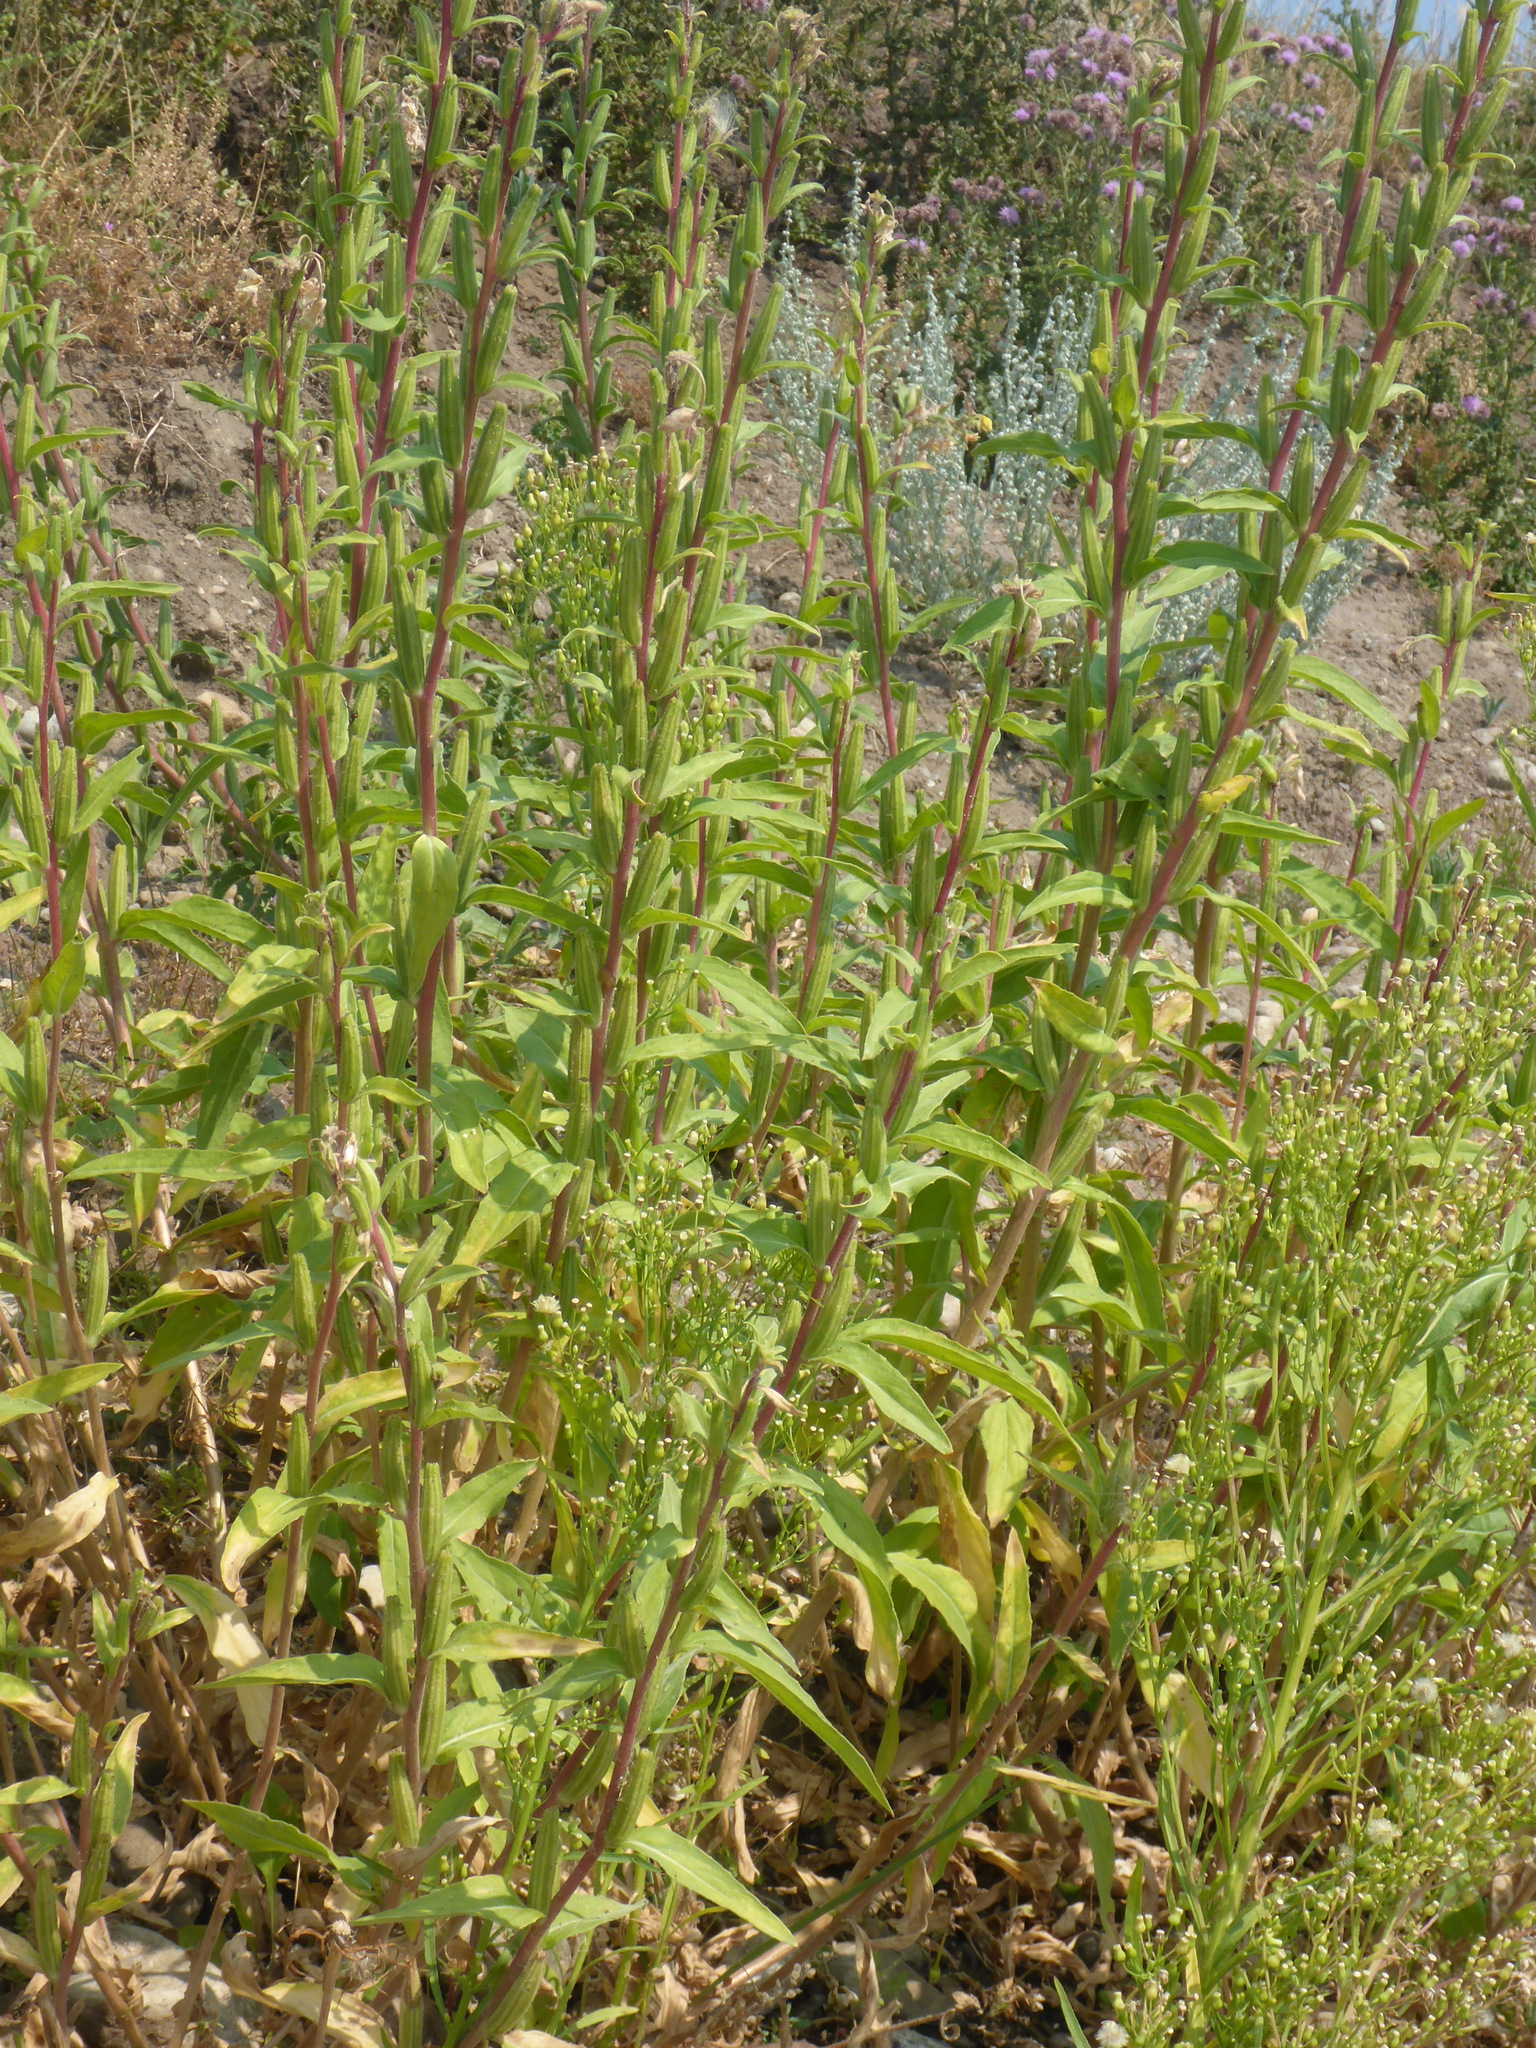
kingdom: Plantae
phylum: Tracheophyta
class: Magnoliopsida
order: Myrtales
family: Onagraceae
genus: Oenothera
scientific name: Oenothera biennis
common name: Common evening-primrose
